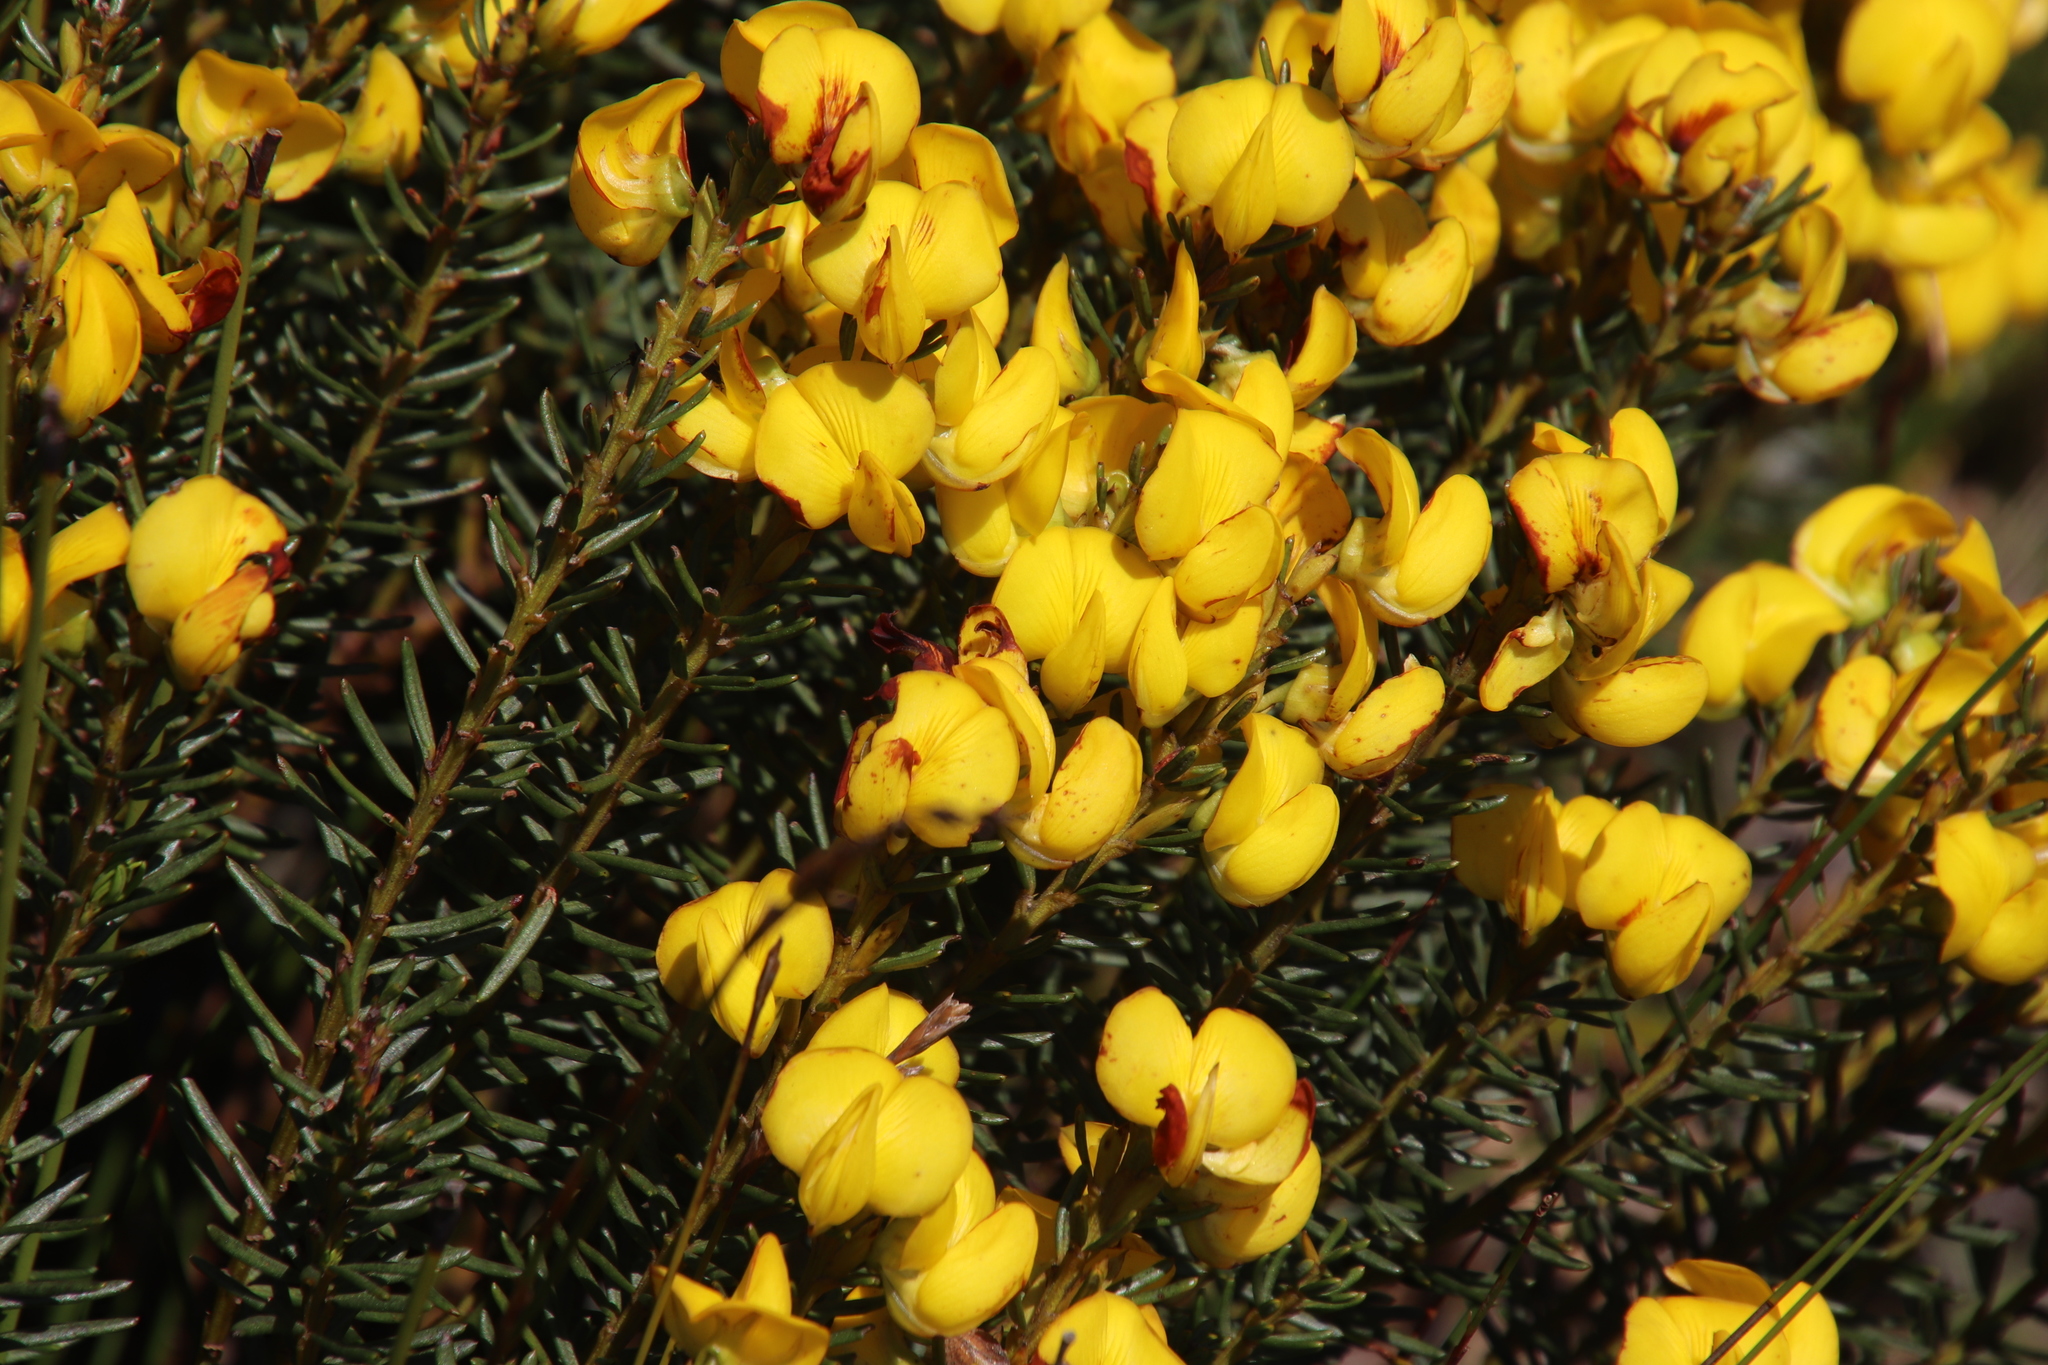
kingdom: Plantae
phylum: Tracheophyta
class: Magnoliopsida
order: Fabales
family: Fabaceae
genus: Cyclopia
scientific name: Cyclopia genistoides
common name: Honeybush tea
